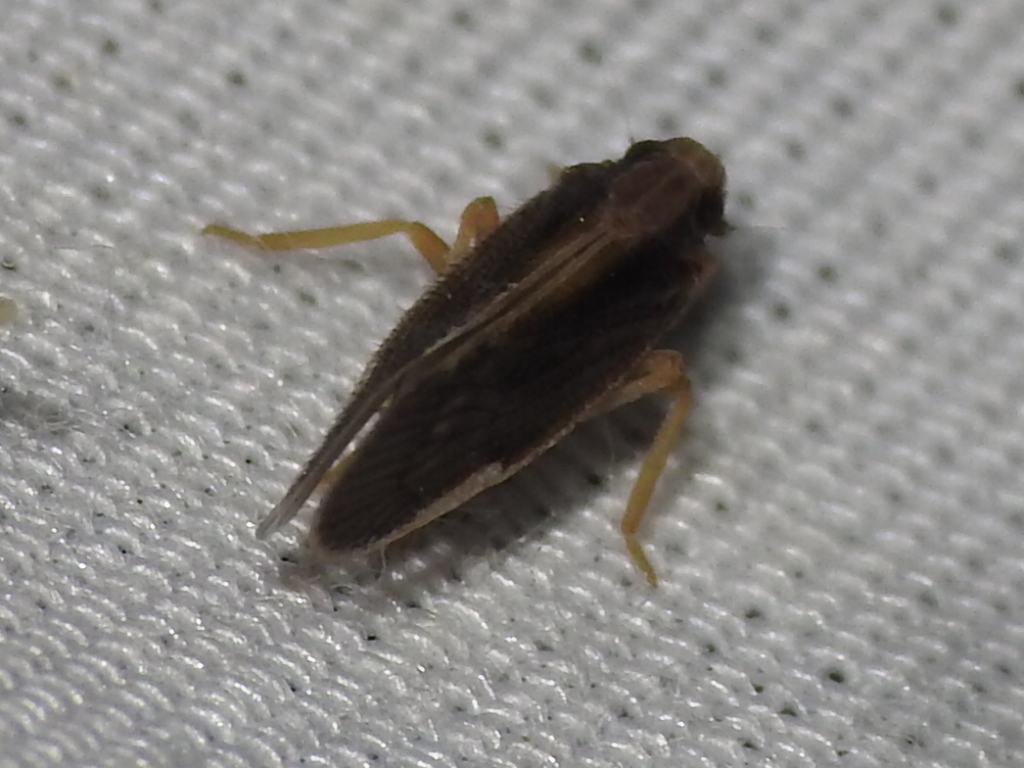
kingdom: Animalia
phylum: Arthropoda
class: Insecta
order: Hemiptera
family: Cixiidae
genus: Pintalia
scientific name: Pintalia delicata
